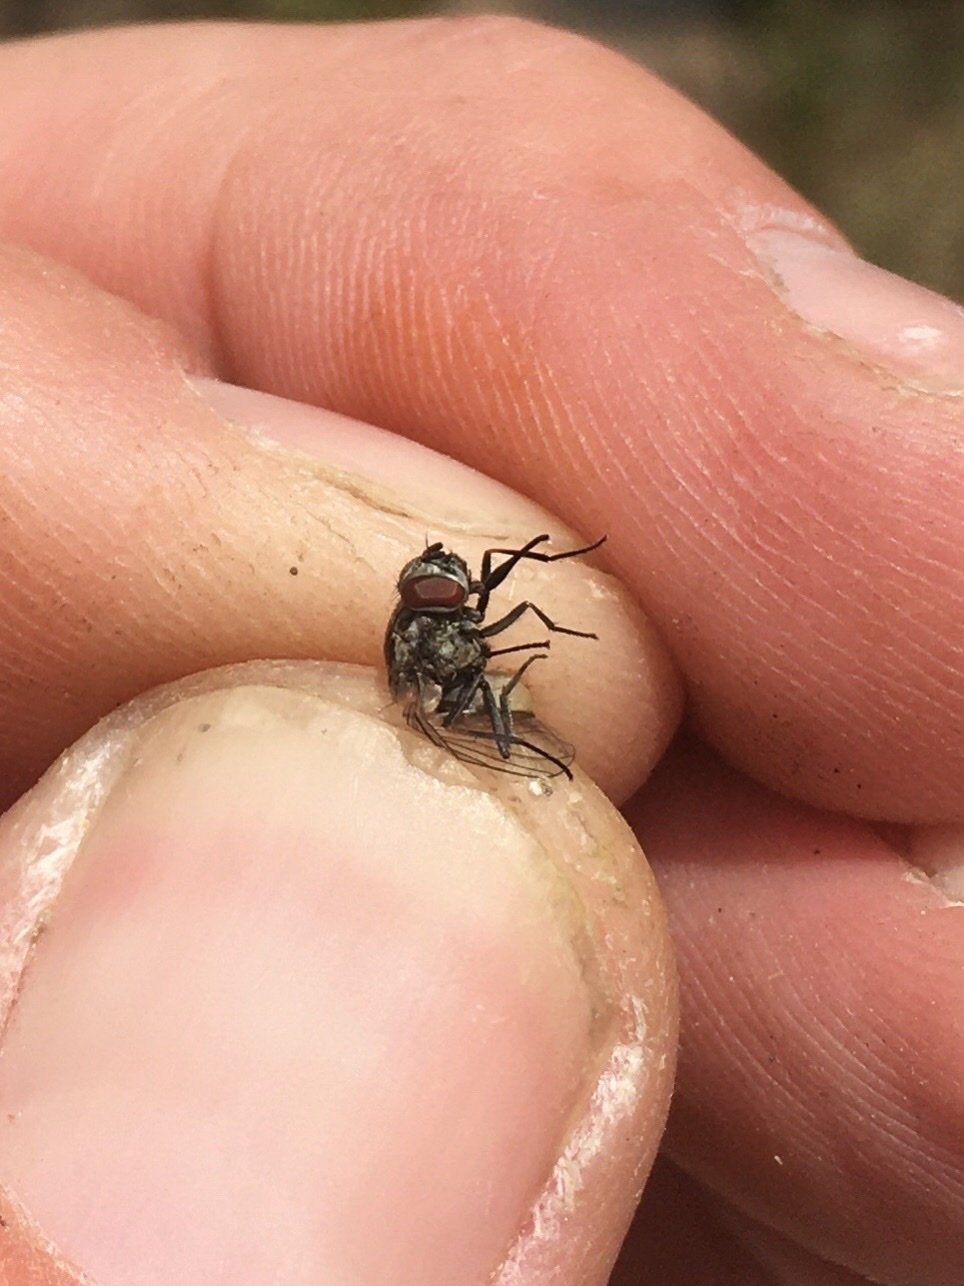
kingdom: Animalia
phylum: Arthropoda
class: Insecta
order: Diptera
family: Muscidae
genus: Stomoxys
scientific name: Stomoxys calcitrans
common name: Stable fly
